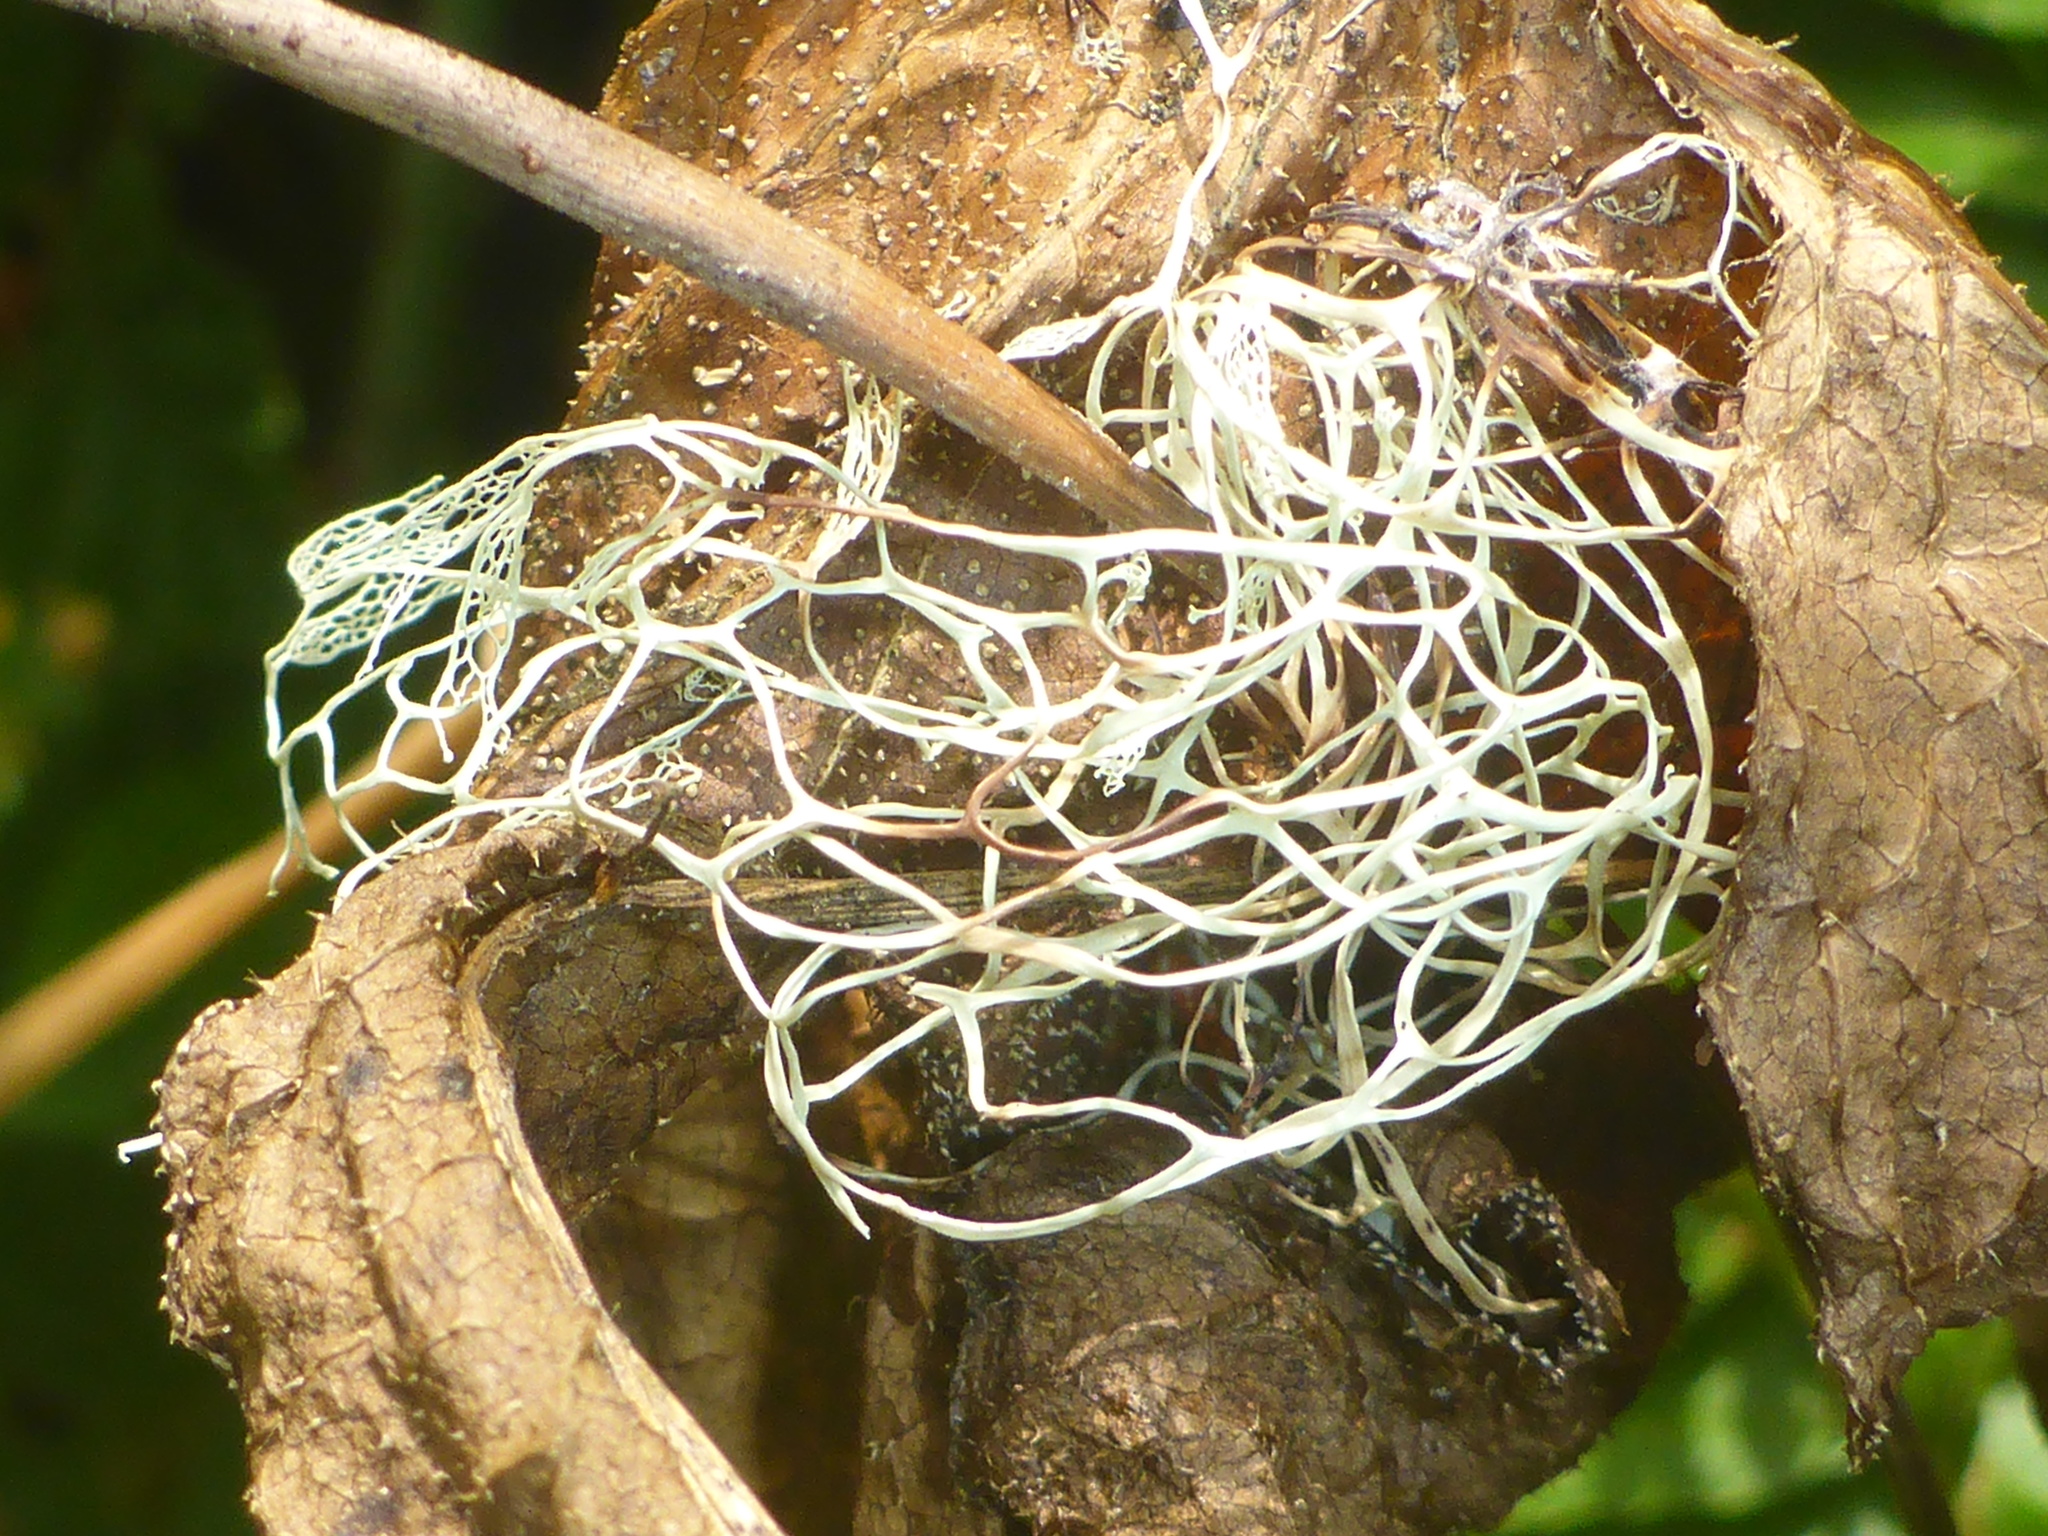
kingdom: Fungi
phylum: Ascomycota
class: Lecanoromycetes
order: Lecanorales
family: Ramalinaceae
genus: Ramalina
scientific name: Ramalina menziesii
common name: Lace lichen
